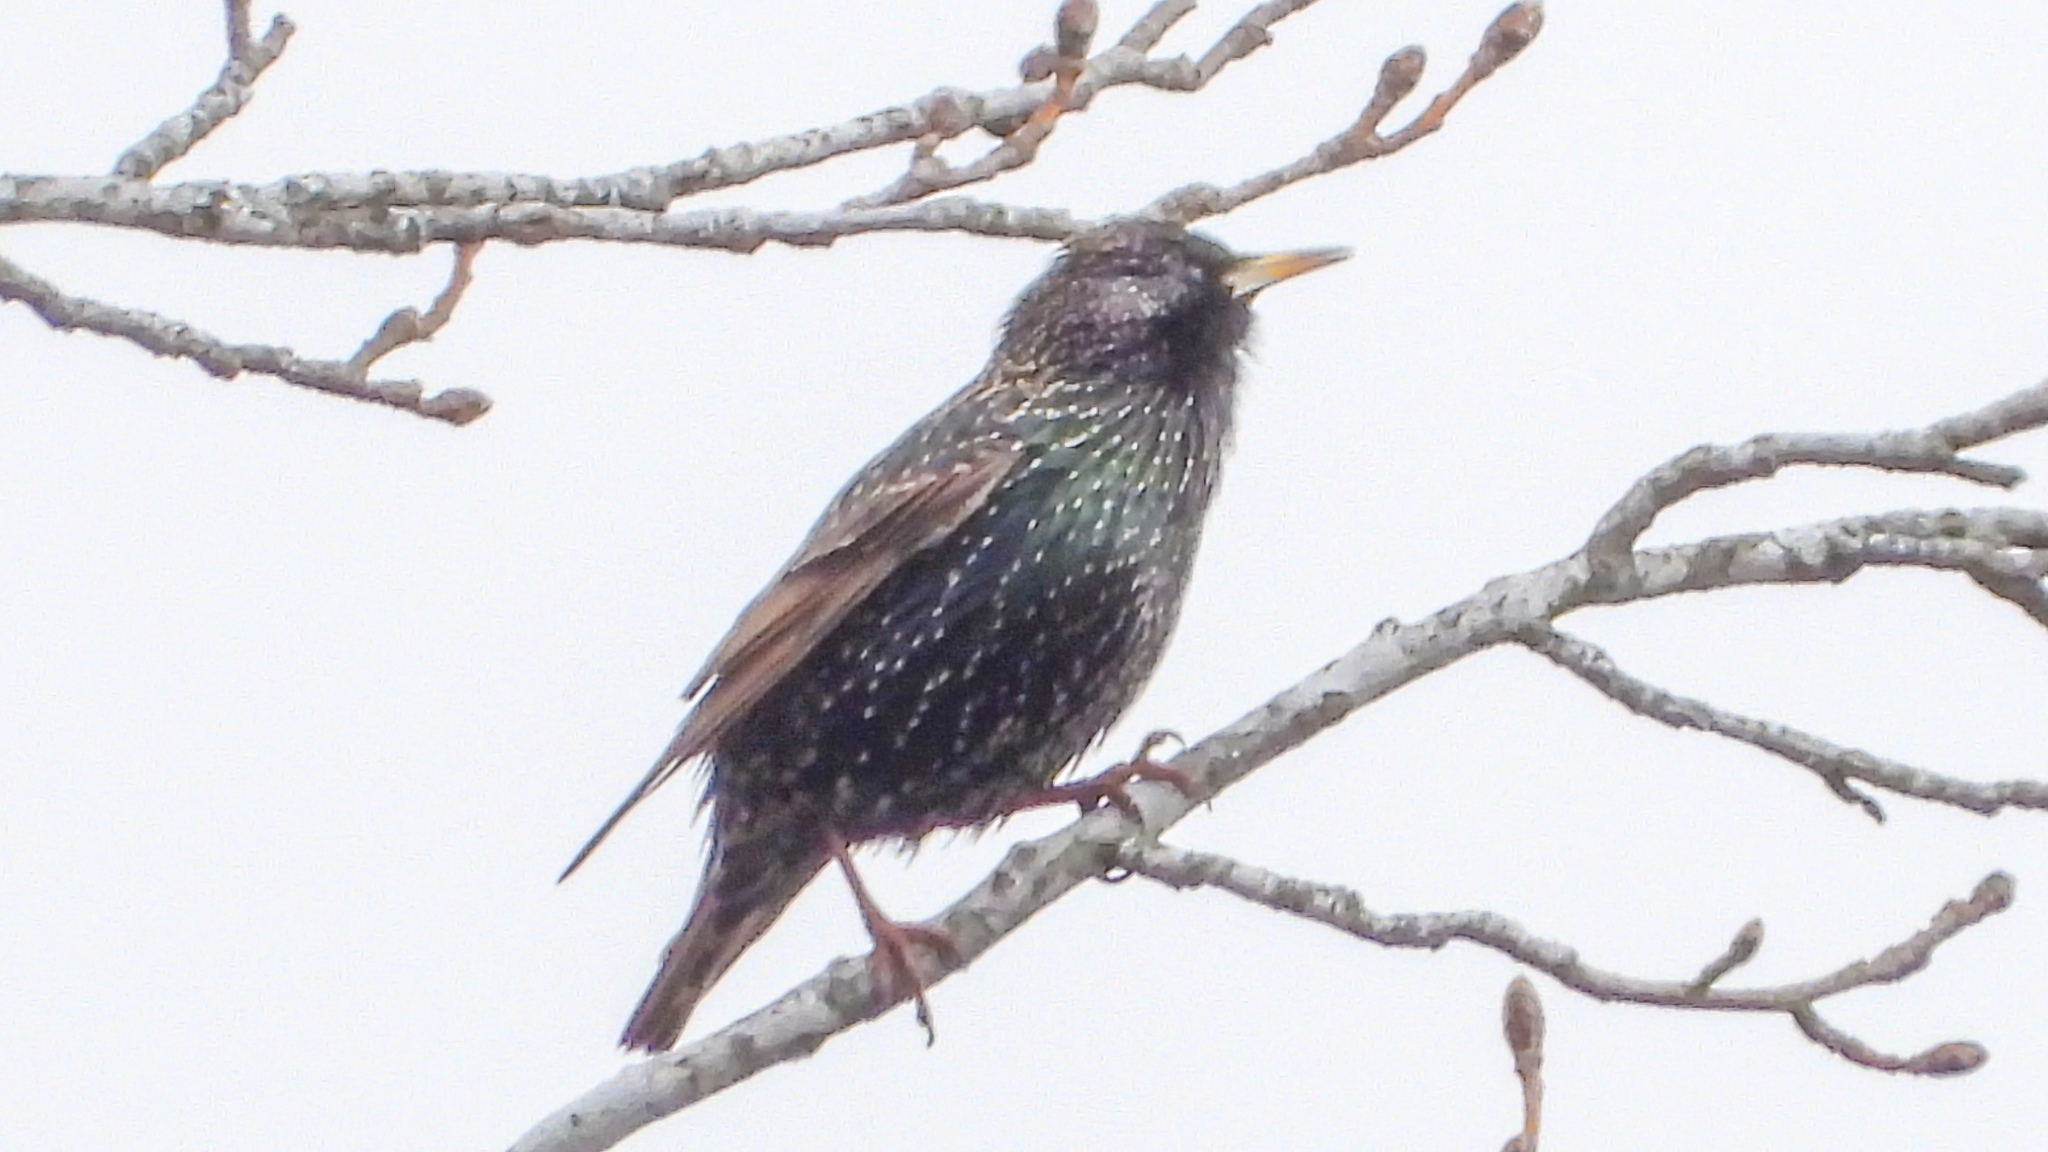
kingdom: Animalia
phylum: Chordata
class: Aves
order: Passeriformes
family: Sturnidae
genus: Sturnus
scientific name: Sturnus vulgaris
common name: Common starling
